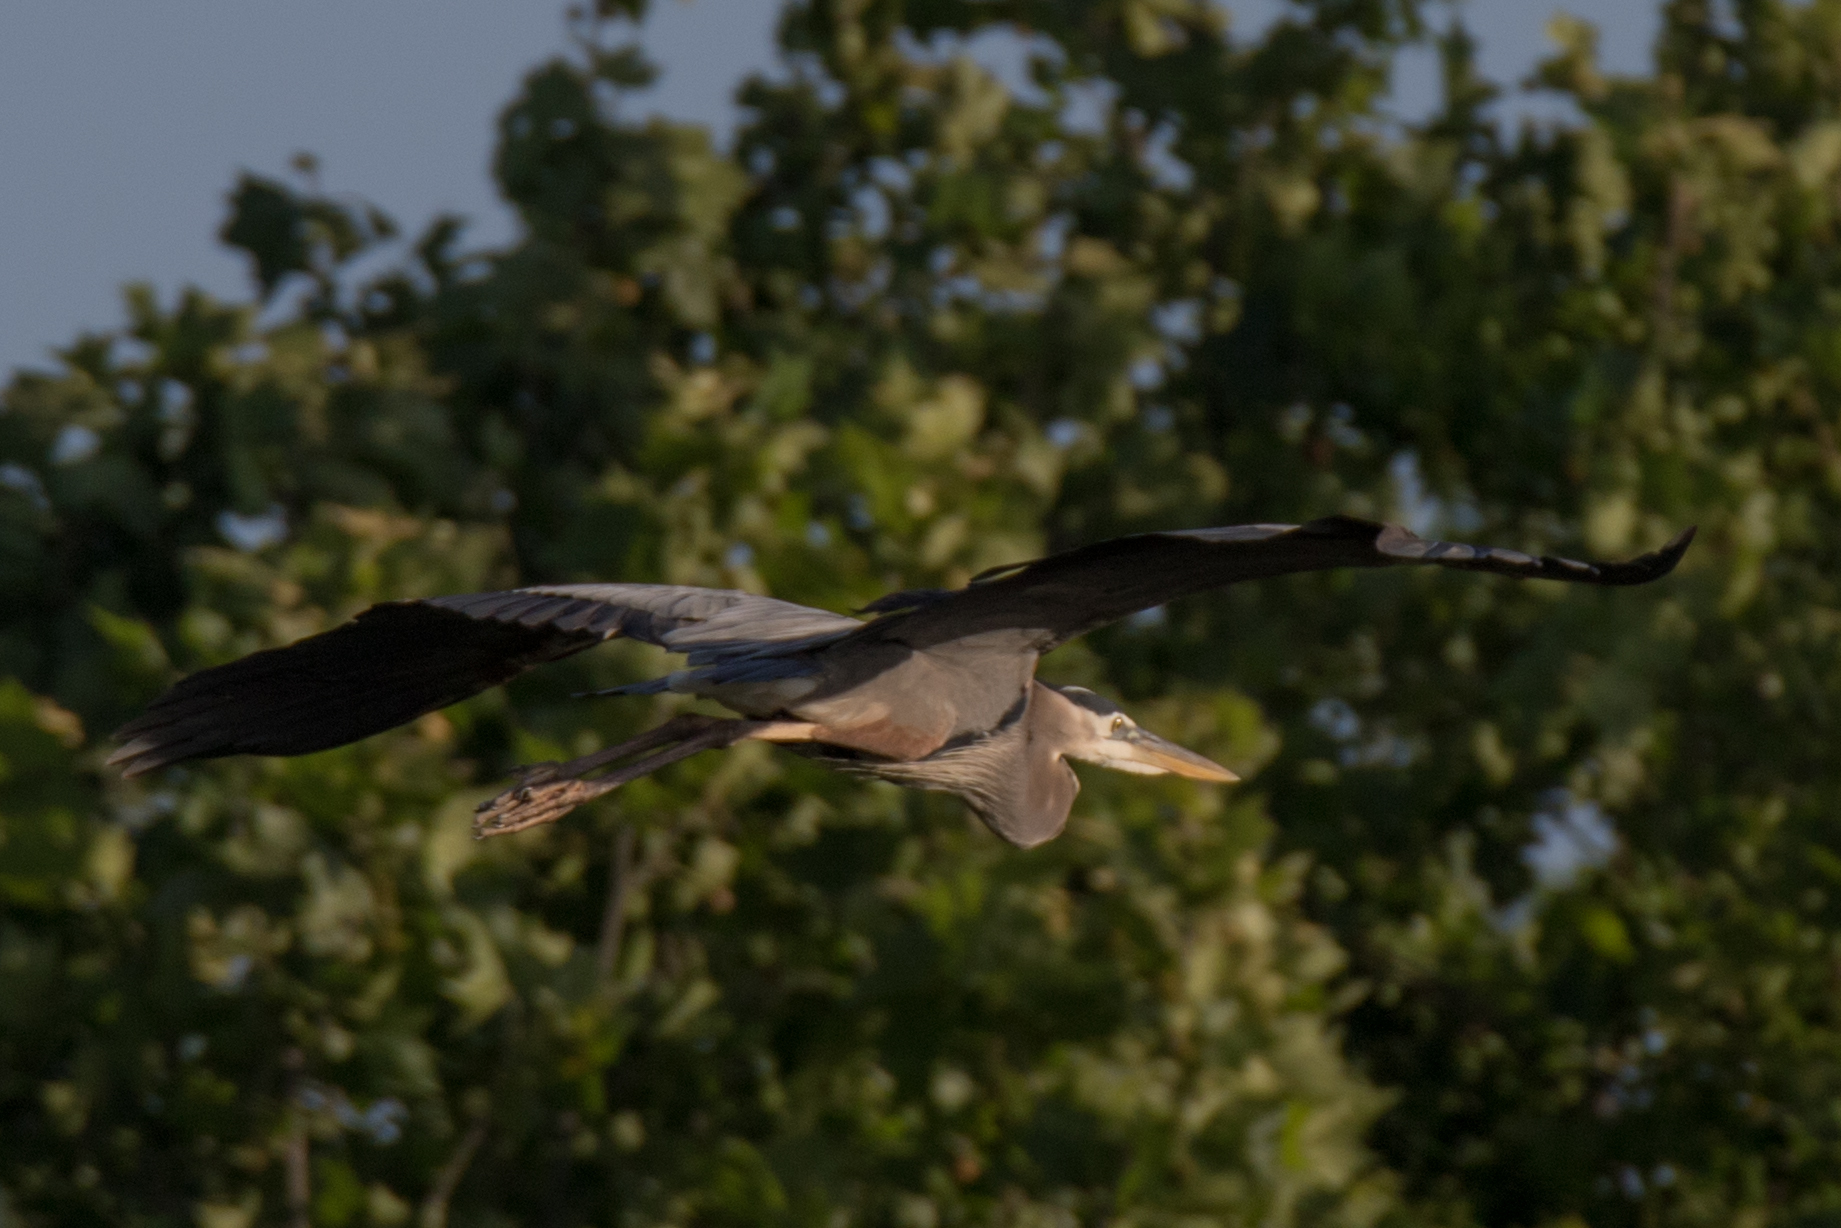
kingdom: Animalia
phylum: Chordata
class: Aves
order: Pelecaniformes
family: Ardeidae
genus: Ardea
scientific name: Ardea herodias
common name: Great blue heron
